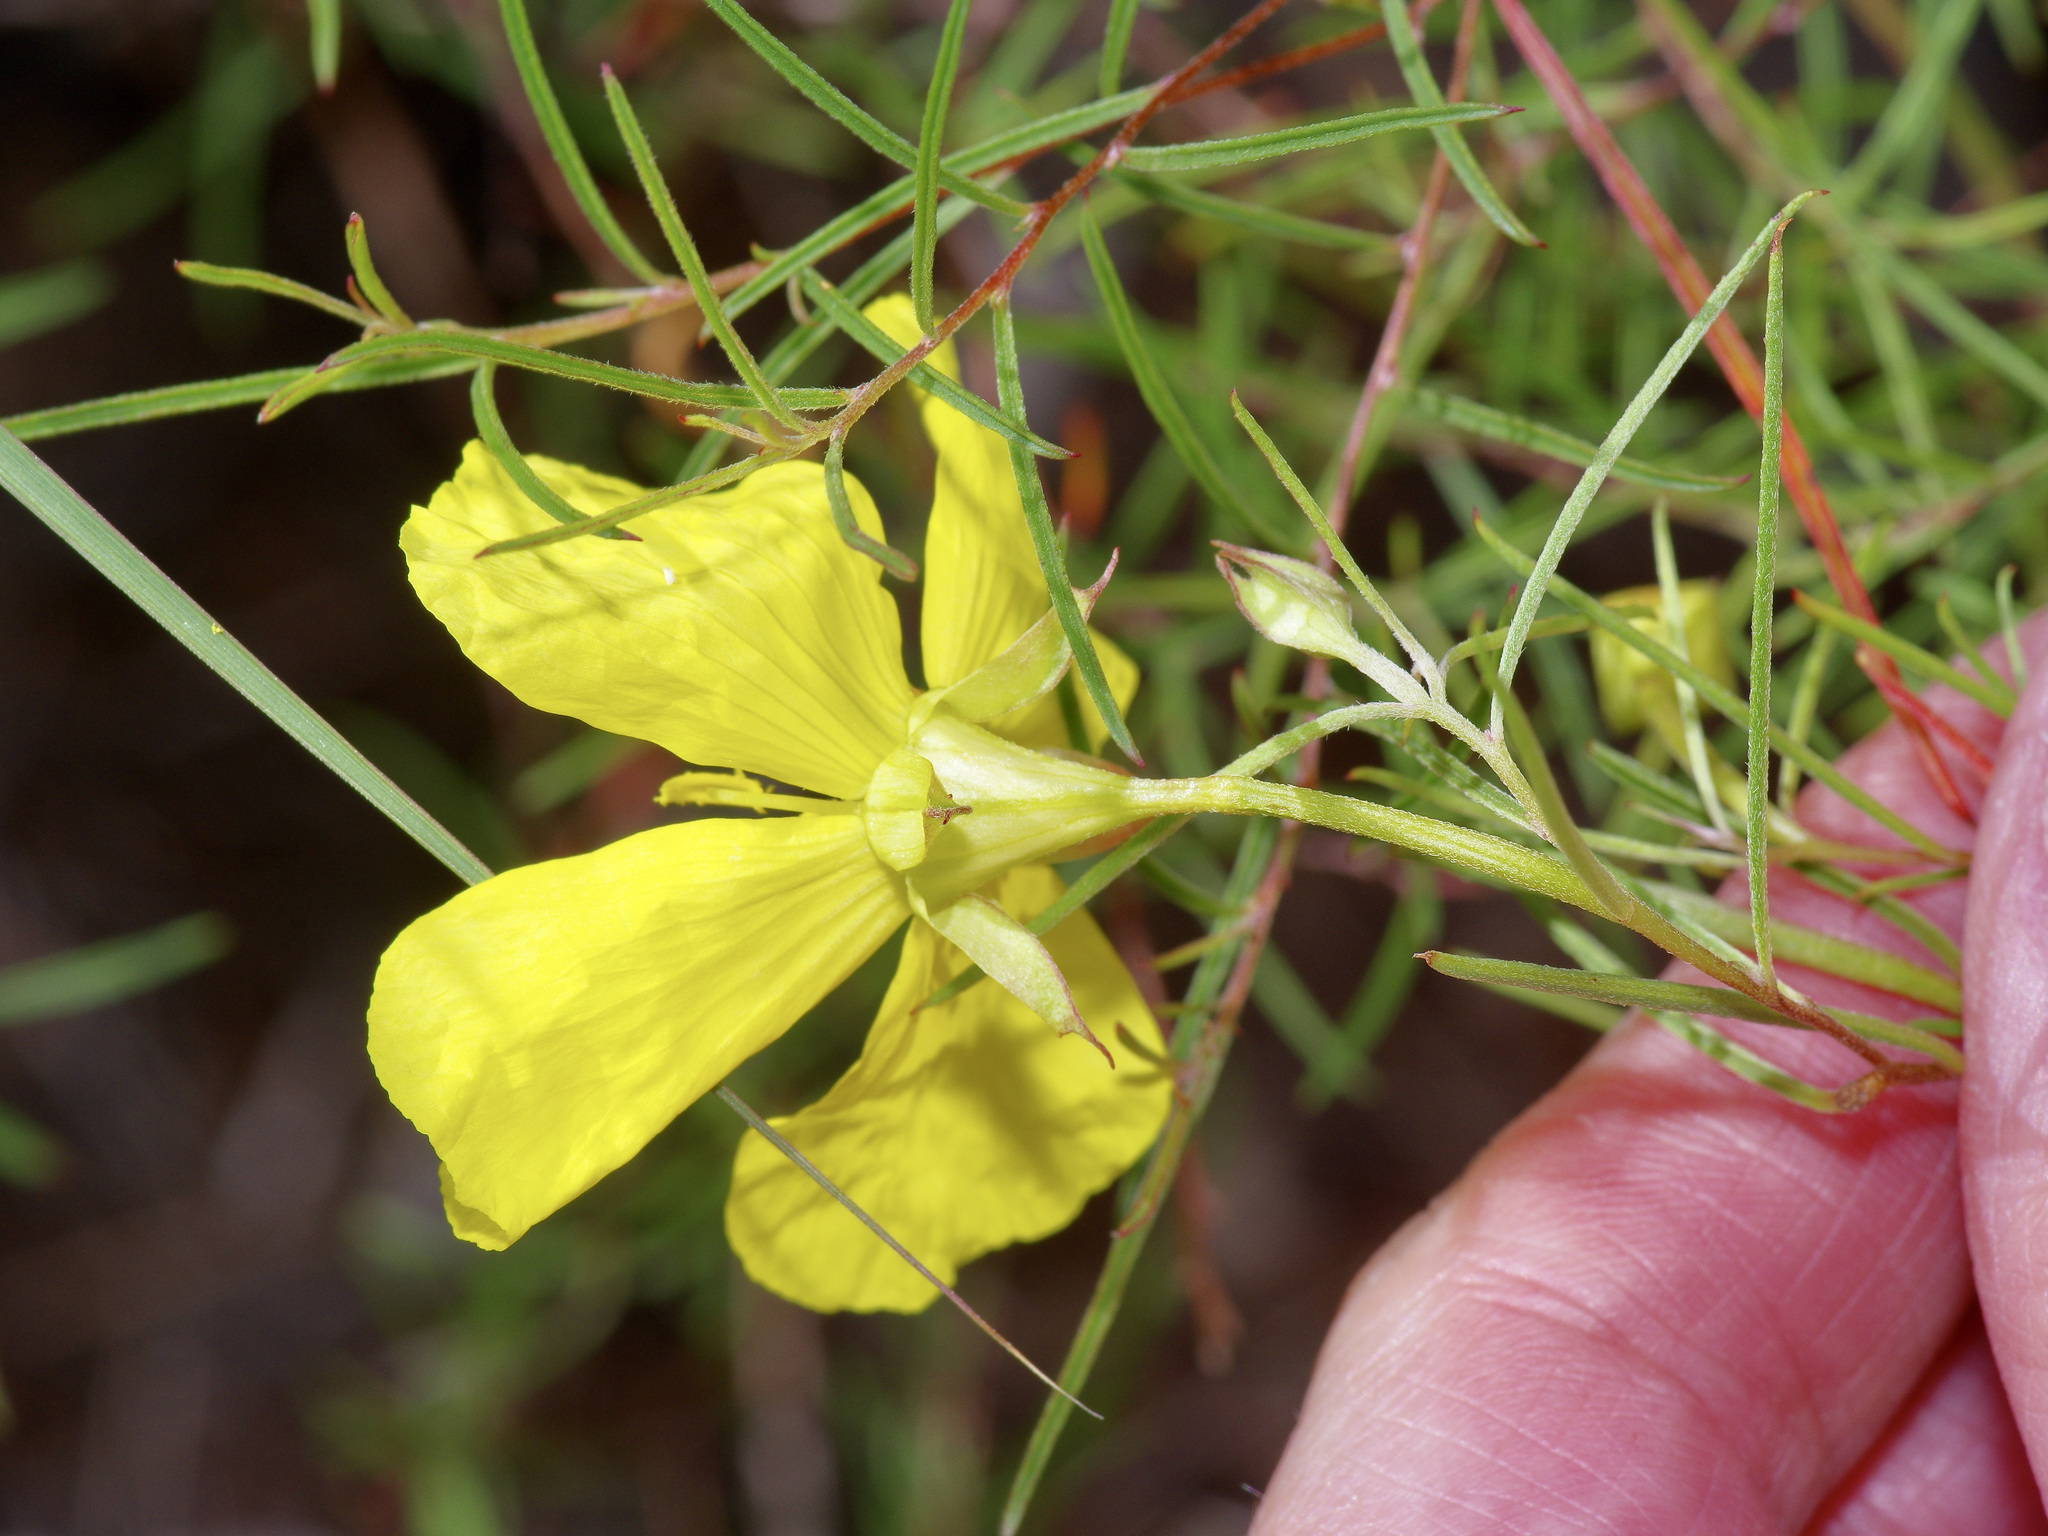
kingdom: Plantae
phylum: Tracheophyta
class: Magnoliopsida
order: Myrtales
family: Onagraceae
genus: Oenothera
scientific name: Oenothera
